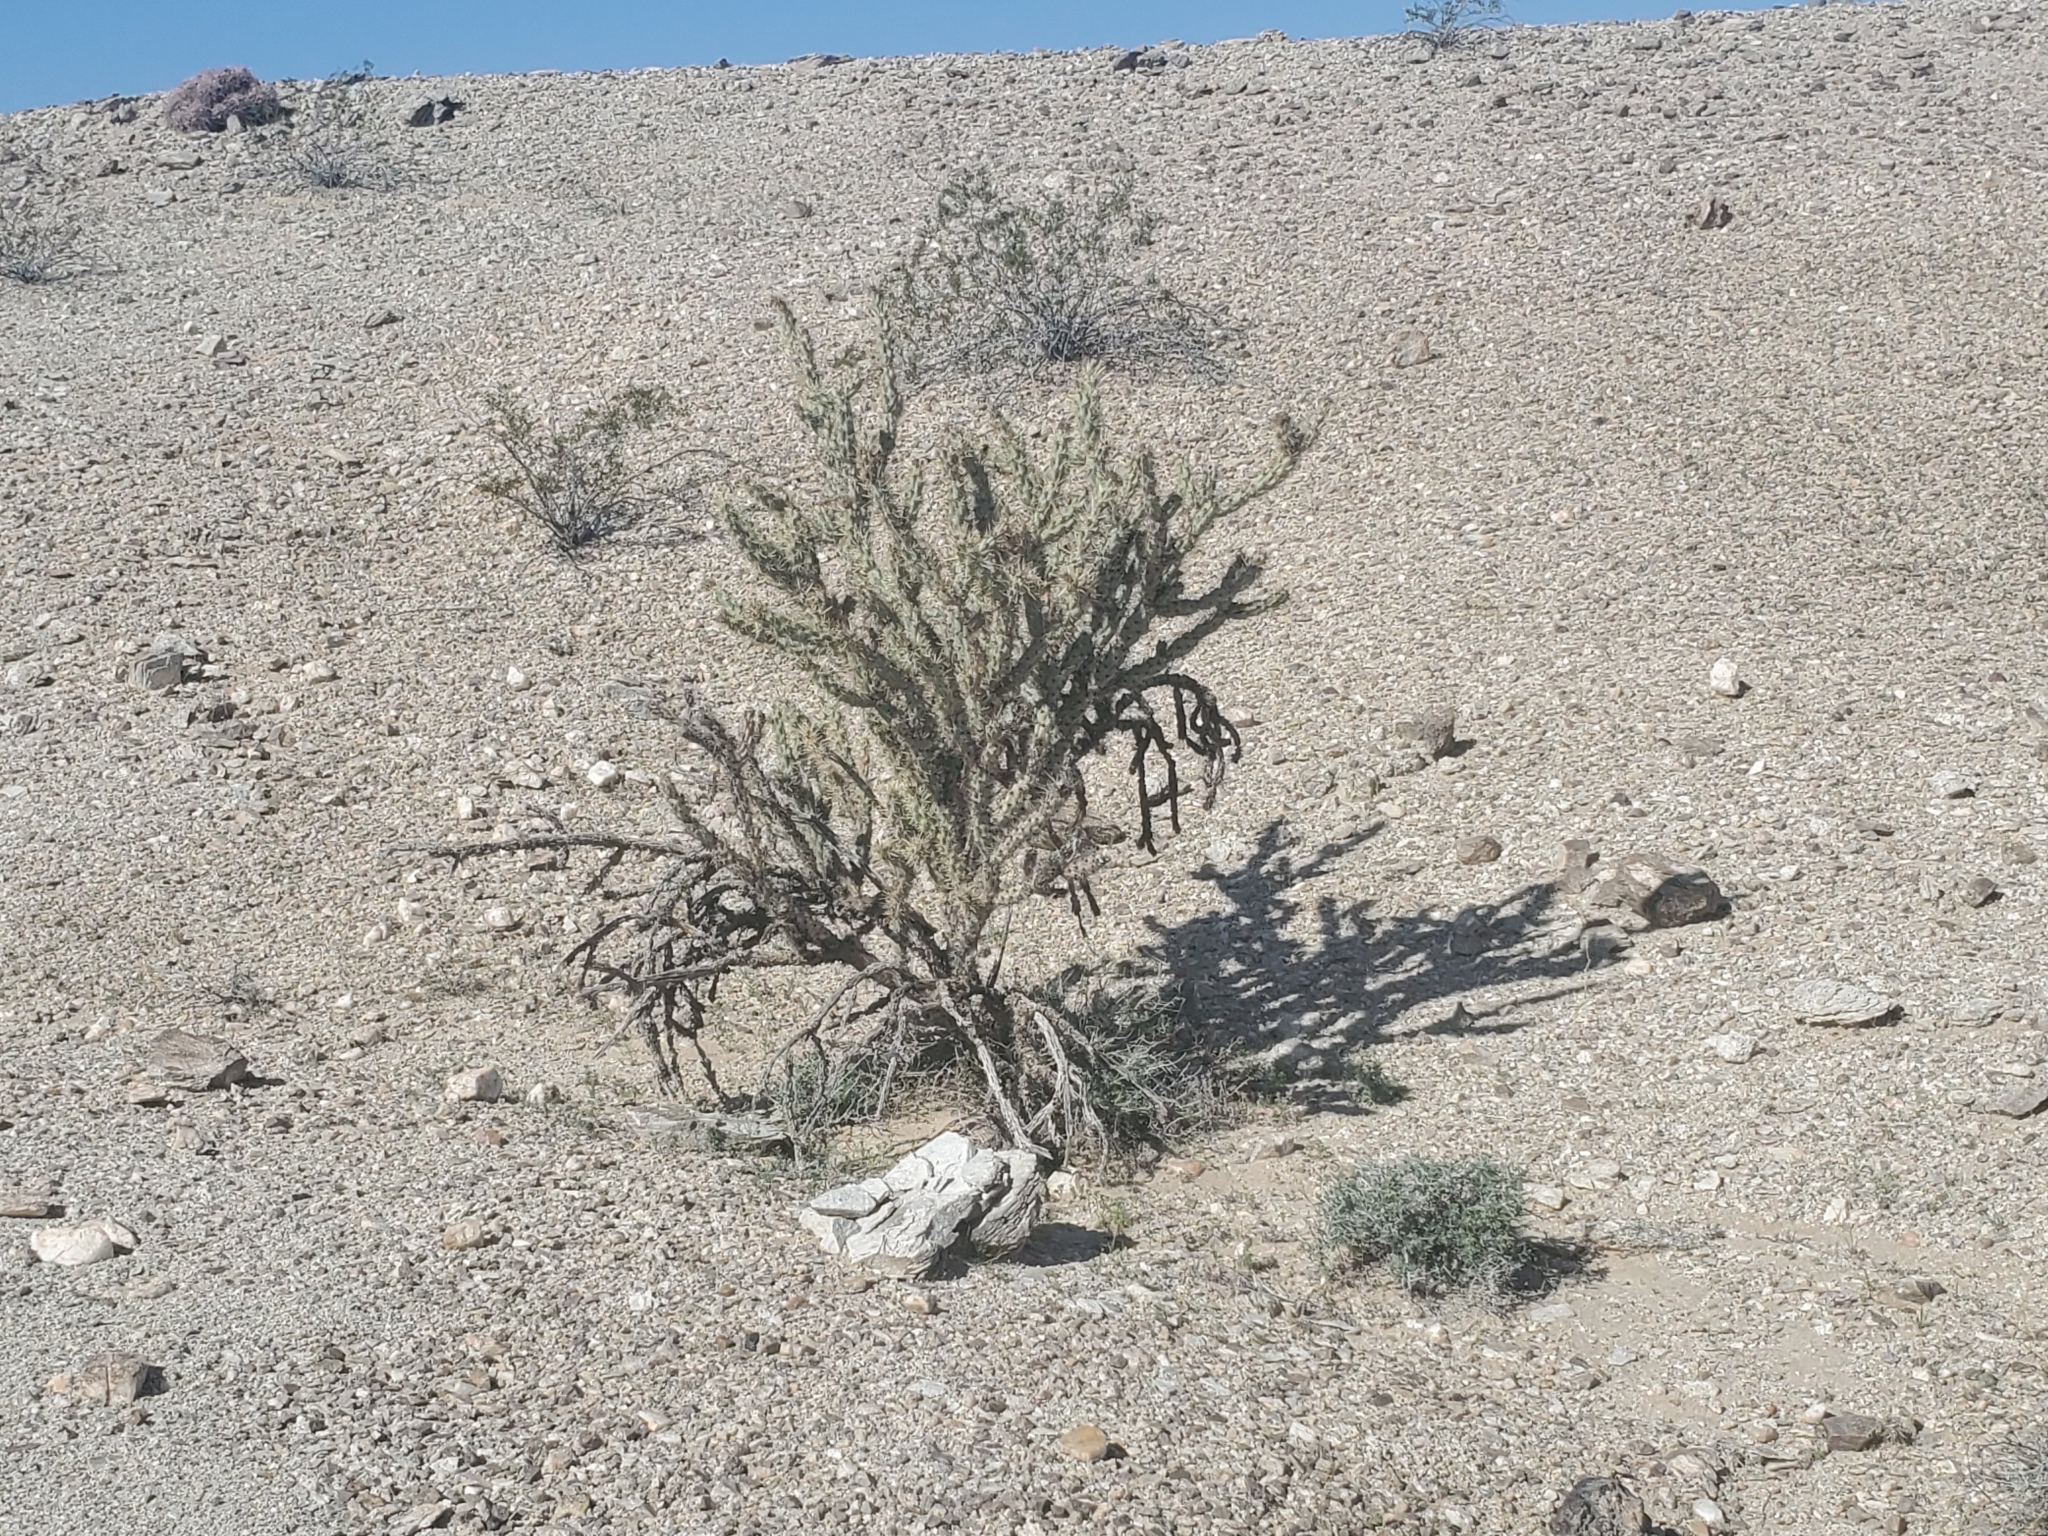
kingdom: Plantae
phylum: Tracheophyta
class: Magnoliopsida
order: Caryophyllales
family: Cactaceae
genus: Cylindropuntia
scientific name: Cylindropuntia acanthocarpa
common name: Buckhorn cholla
